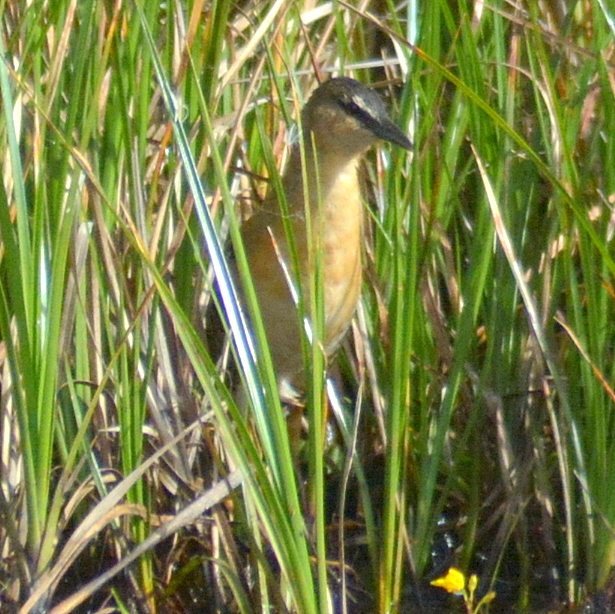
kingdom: Animalia
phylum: Chordata
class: Aves
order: Gruiformes
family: Rallidae
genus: Porzana
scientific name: Porzana flaviventer
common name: Yellow-breasted crake
